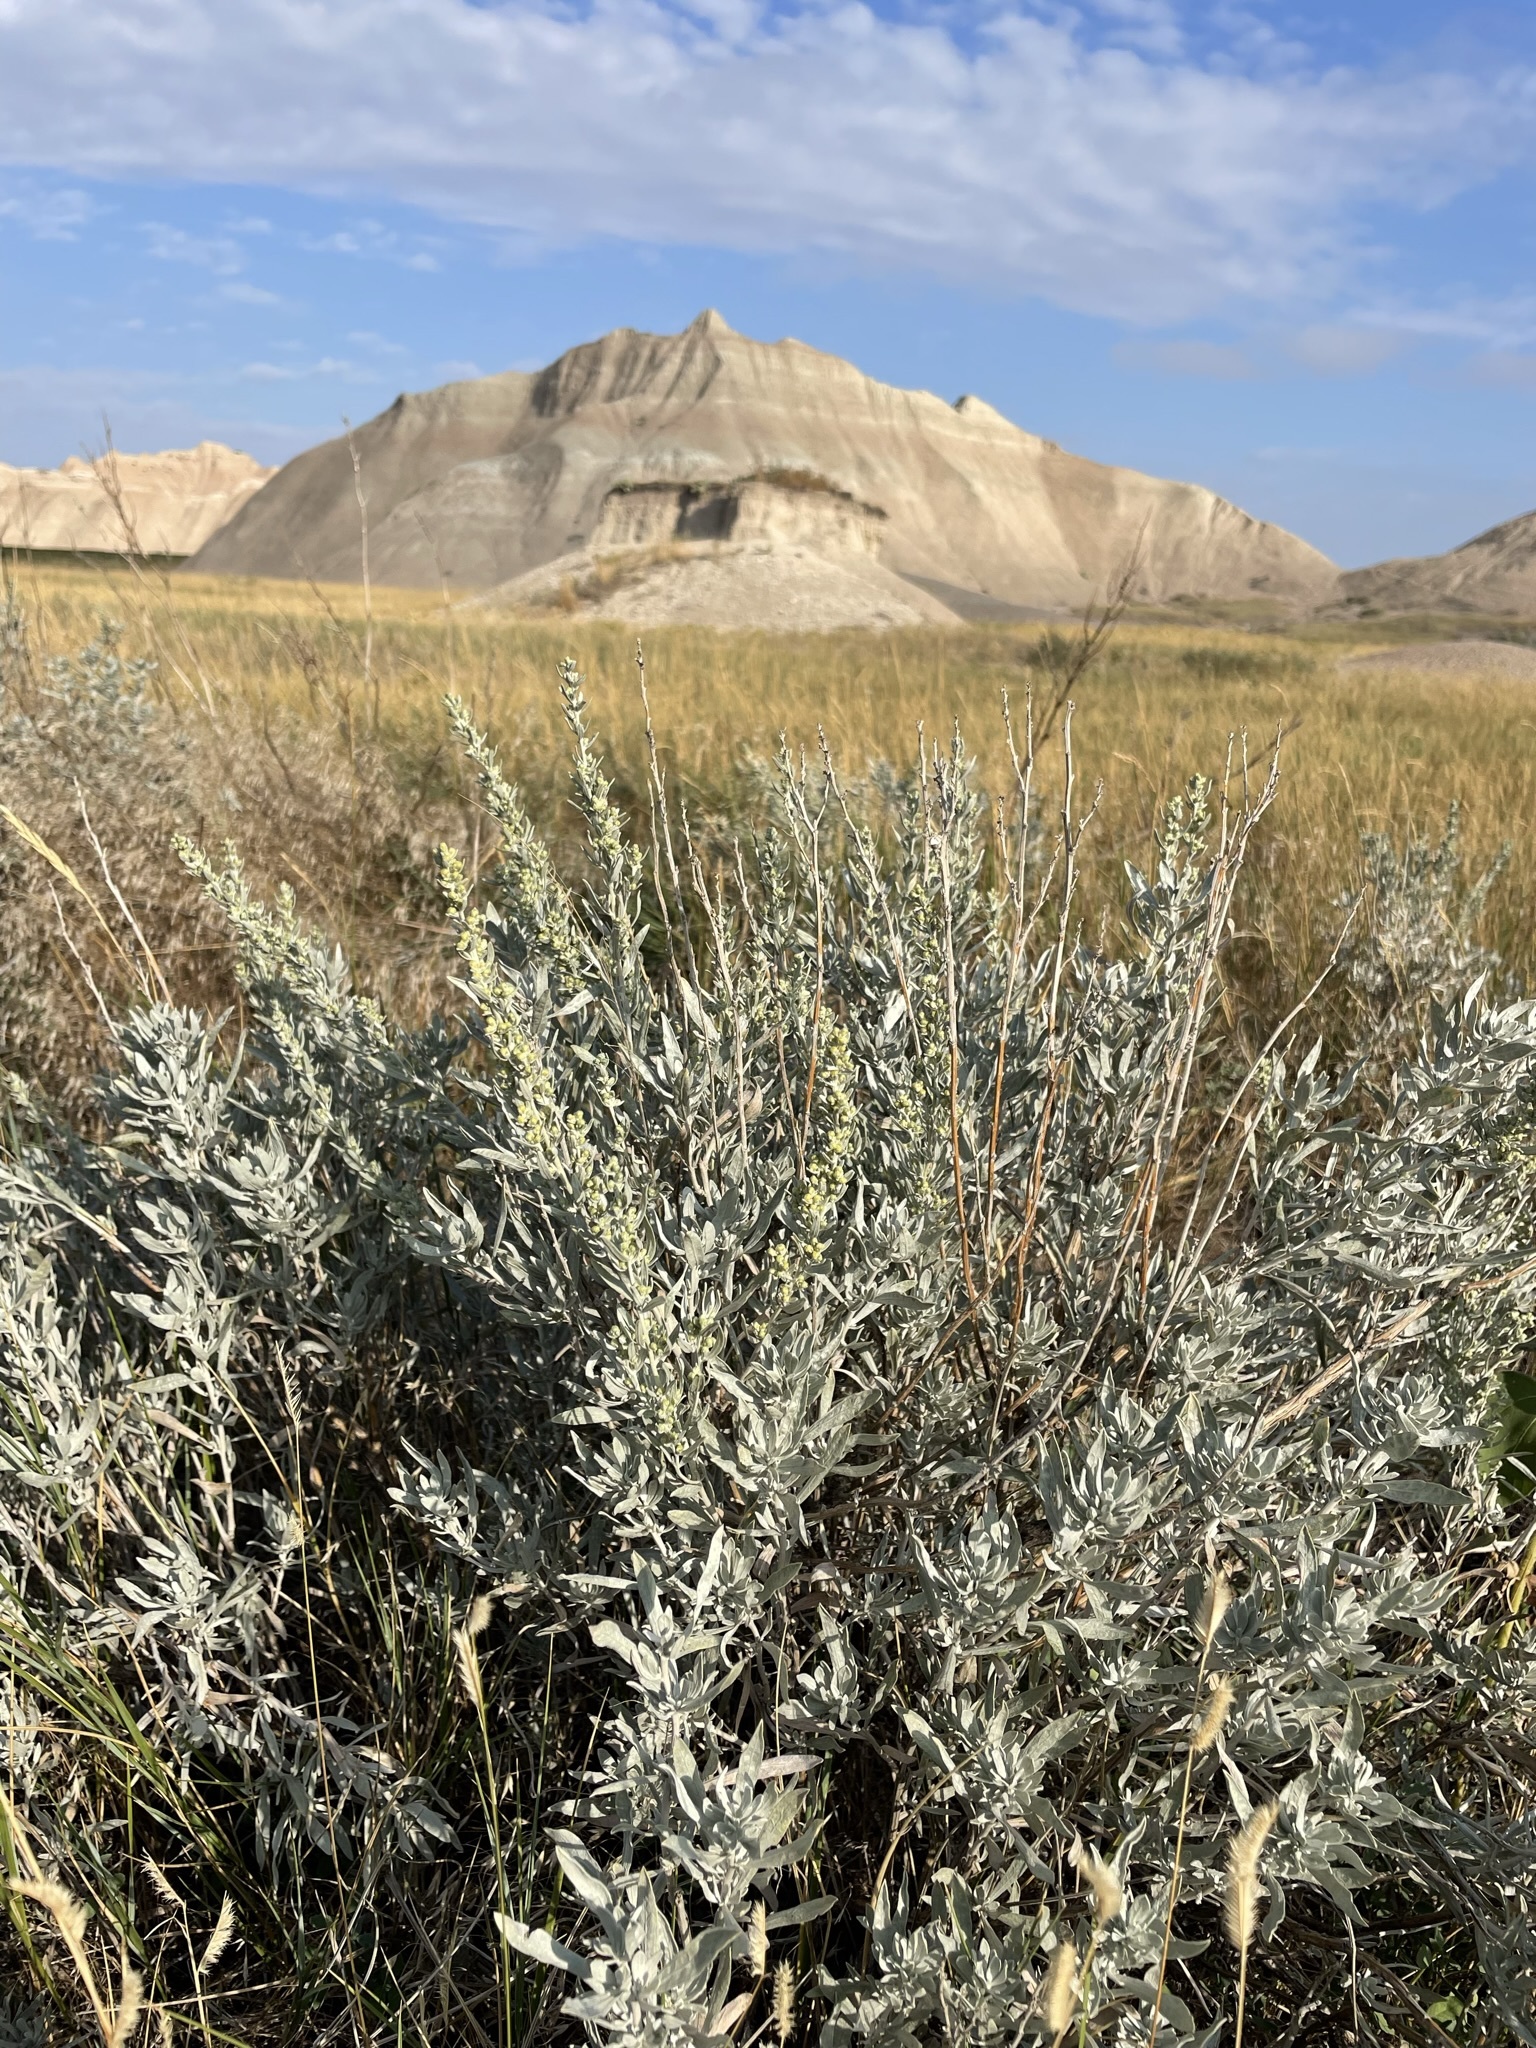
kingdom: Plantae
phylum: Tracheophyta
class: Magnoliopsida
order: Asterales
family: Asteraceae
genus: Artemisia
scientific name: Artemisia cana
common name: Silver sagebrush
